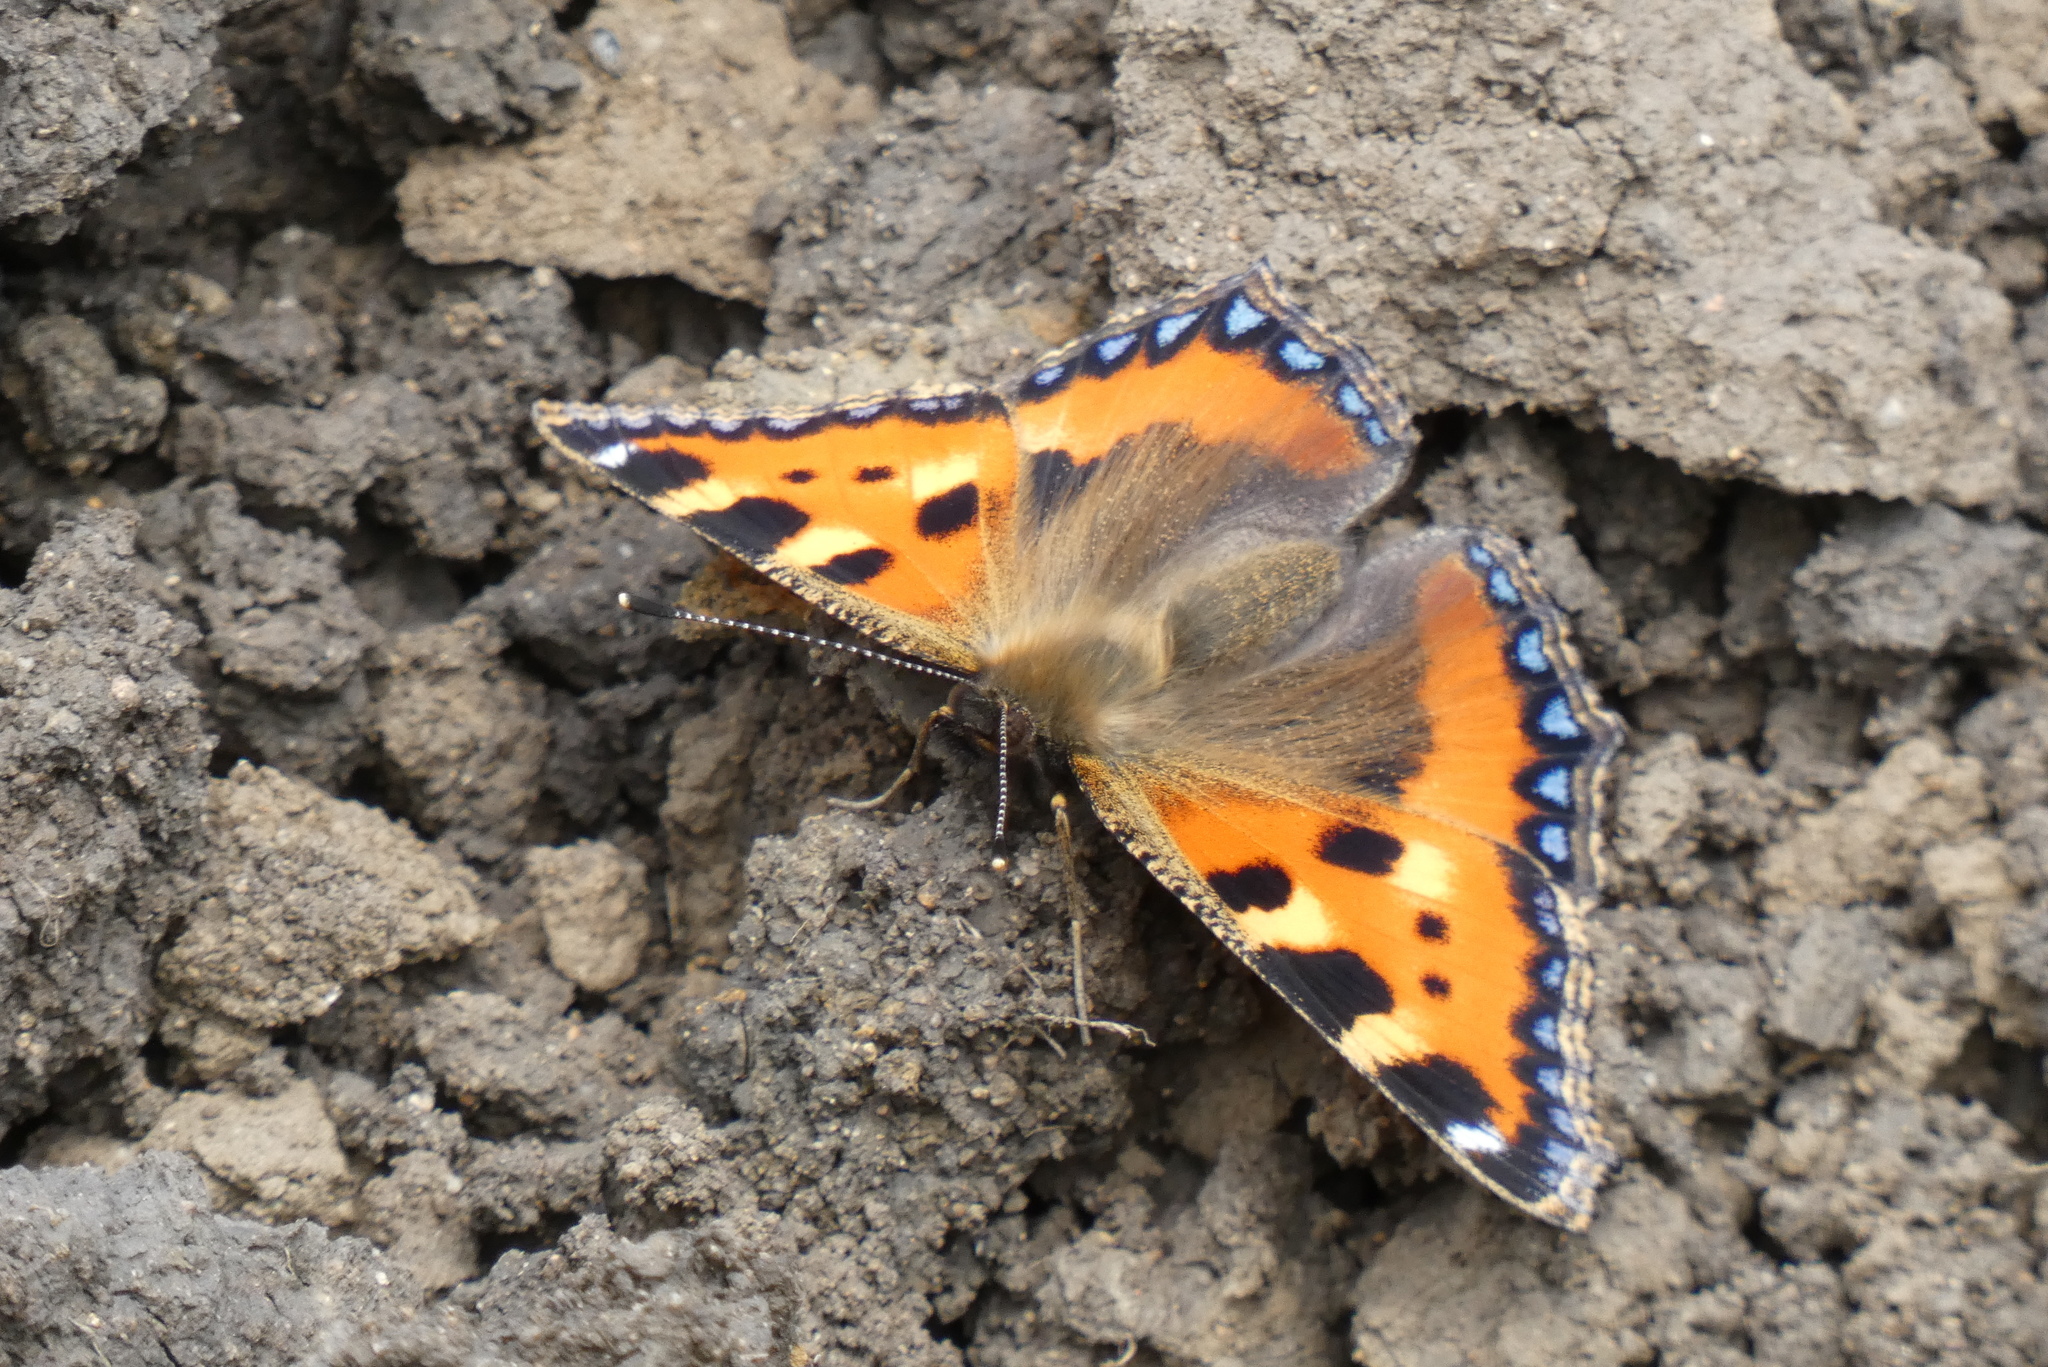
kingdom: Animalia
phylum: Arthropoda
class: Insecta
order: Lepidoptera
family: Nymphalidae
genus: Aglais
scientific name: Aglais urticae
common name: Small tortoiseshell
